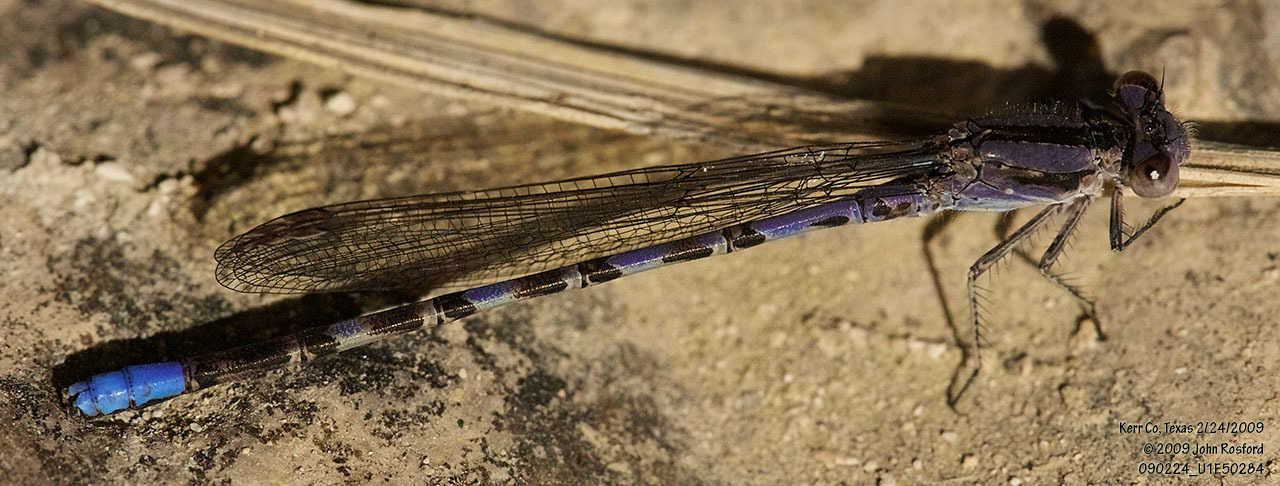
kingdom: Animalia
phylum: Arthropoda
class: Insecta
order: Odonata
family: Coenagrionidae
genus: Argia
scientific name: Argia immunda
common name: Kiowa dancer
